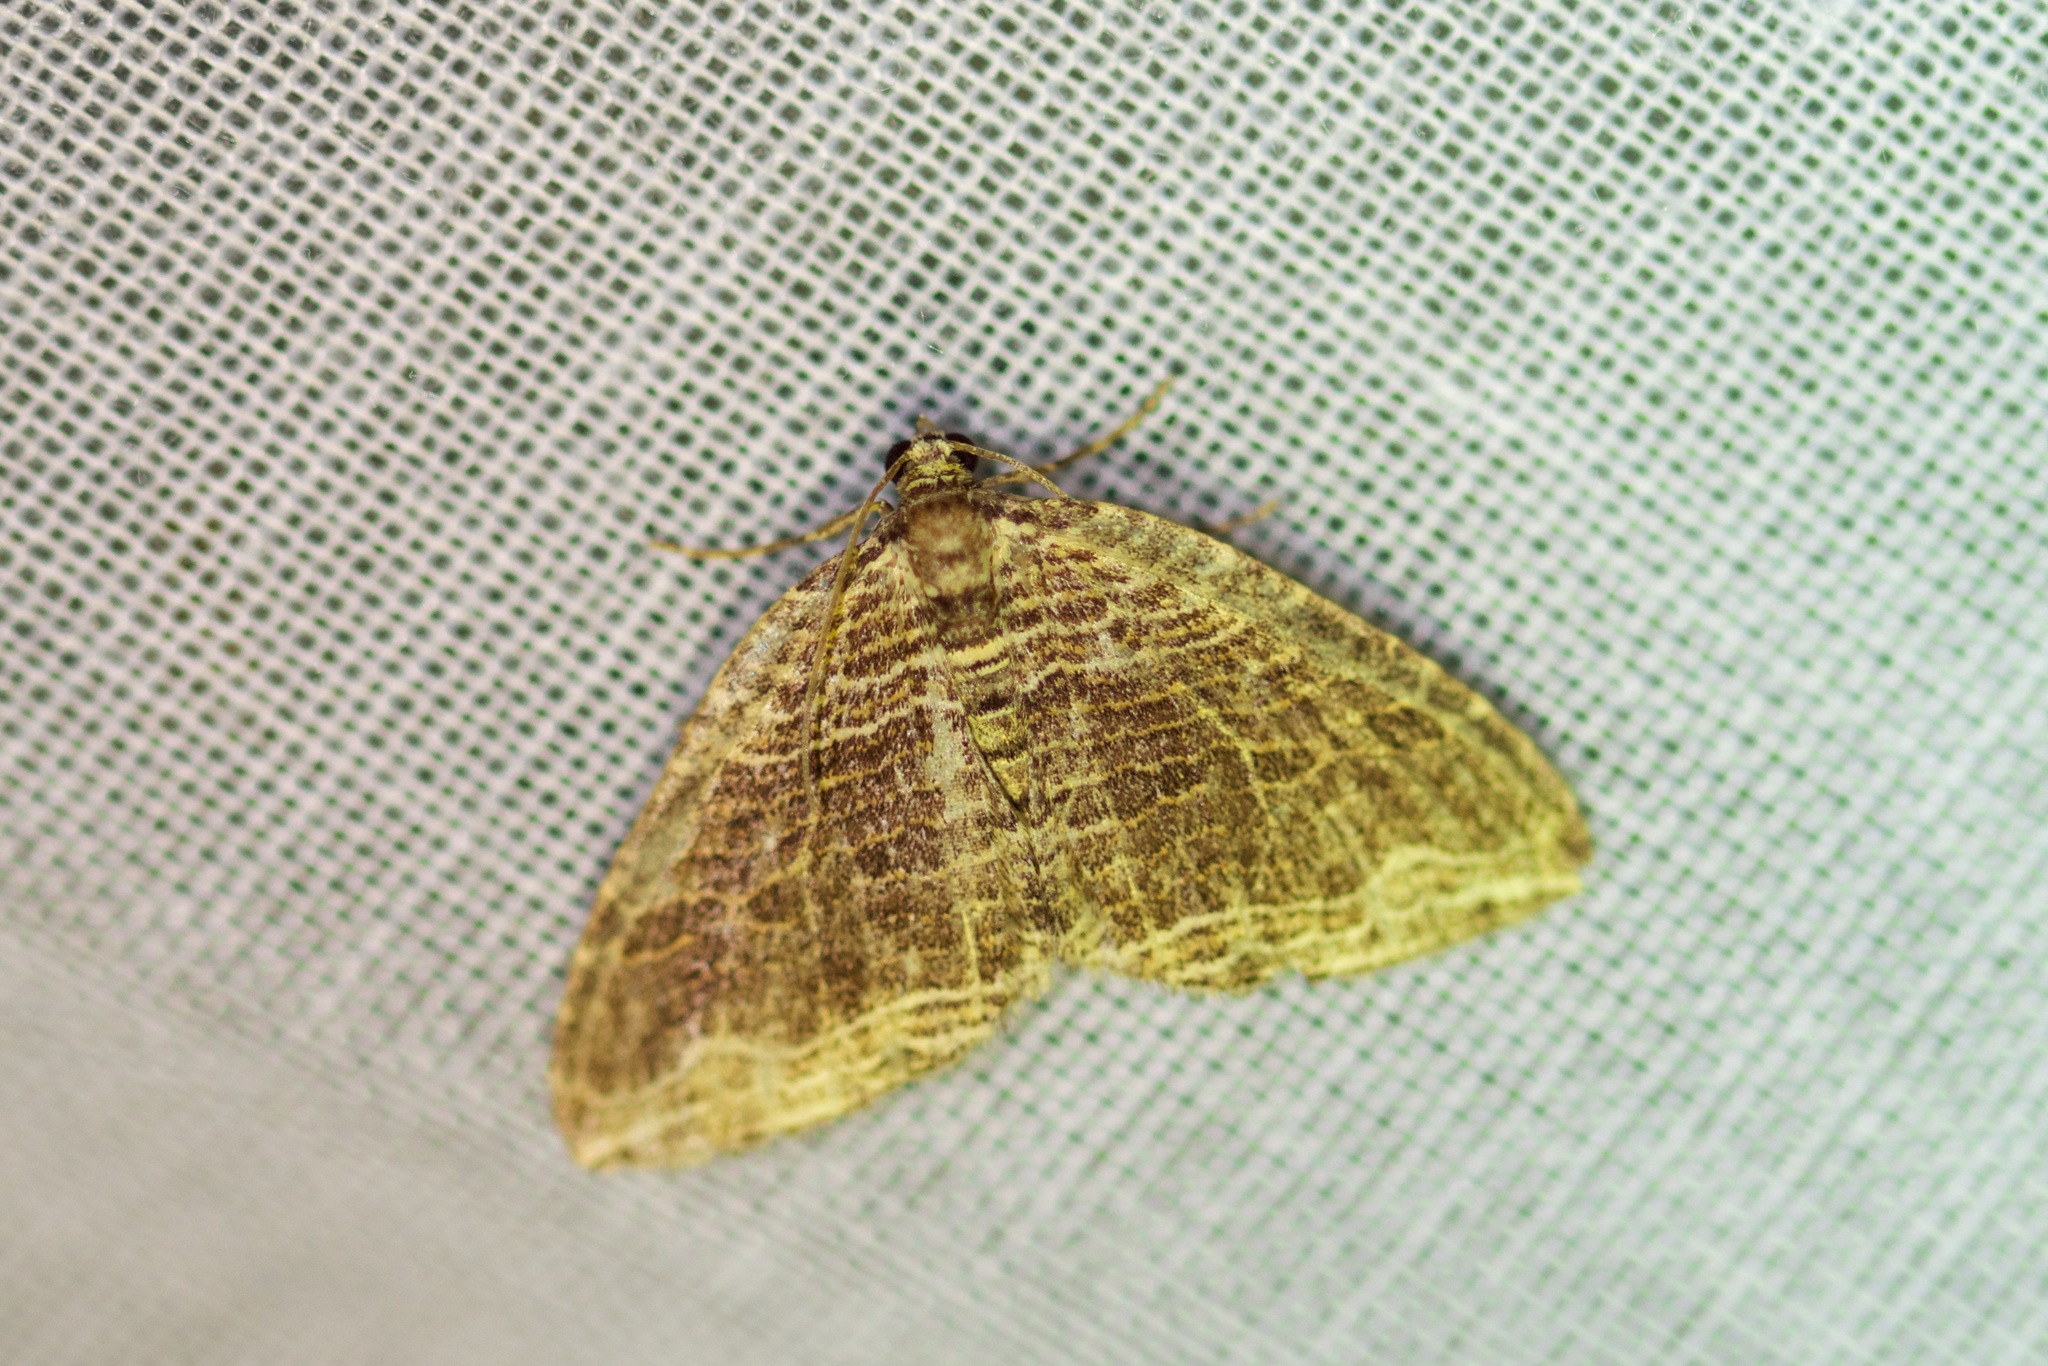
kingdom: Animalia
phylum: Arthropoda
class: Insecta
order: Lepidoptera
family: Geometridae
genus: Anticlea
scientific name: Anticlea multiferata
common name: Many-lined carpet
